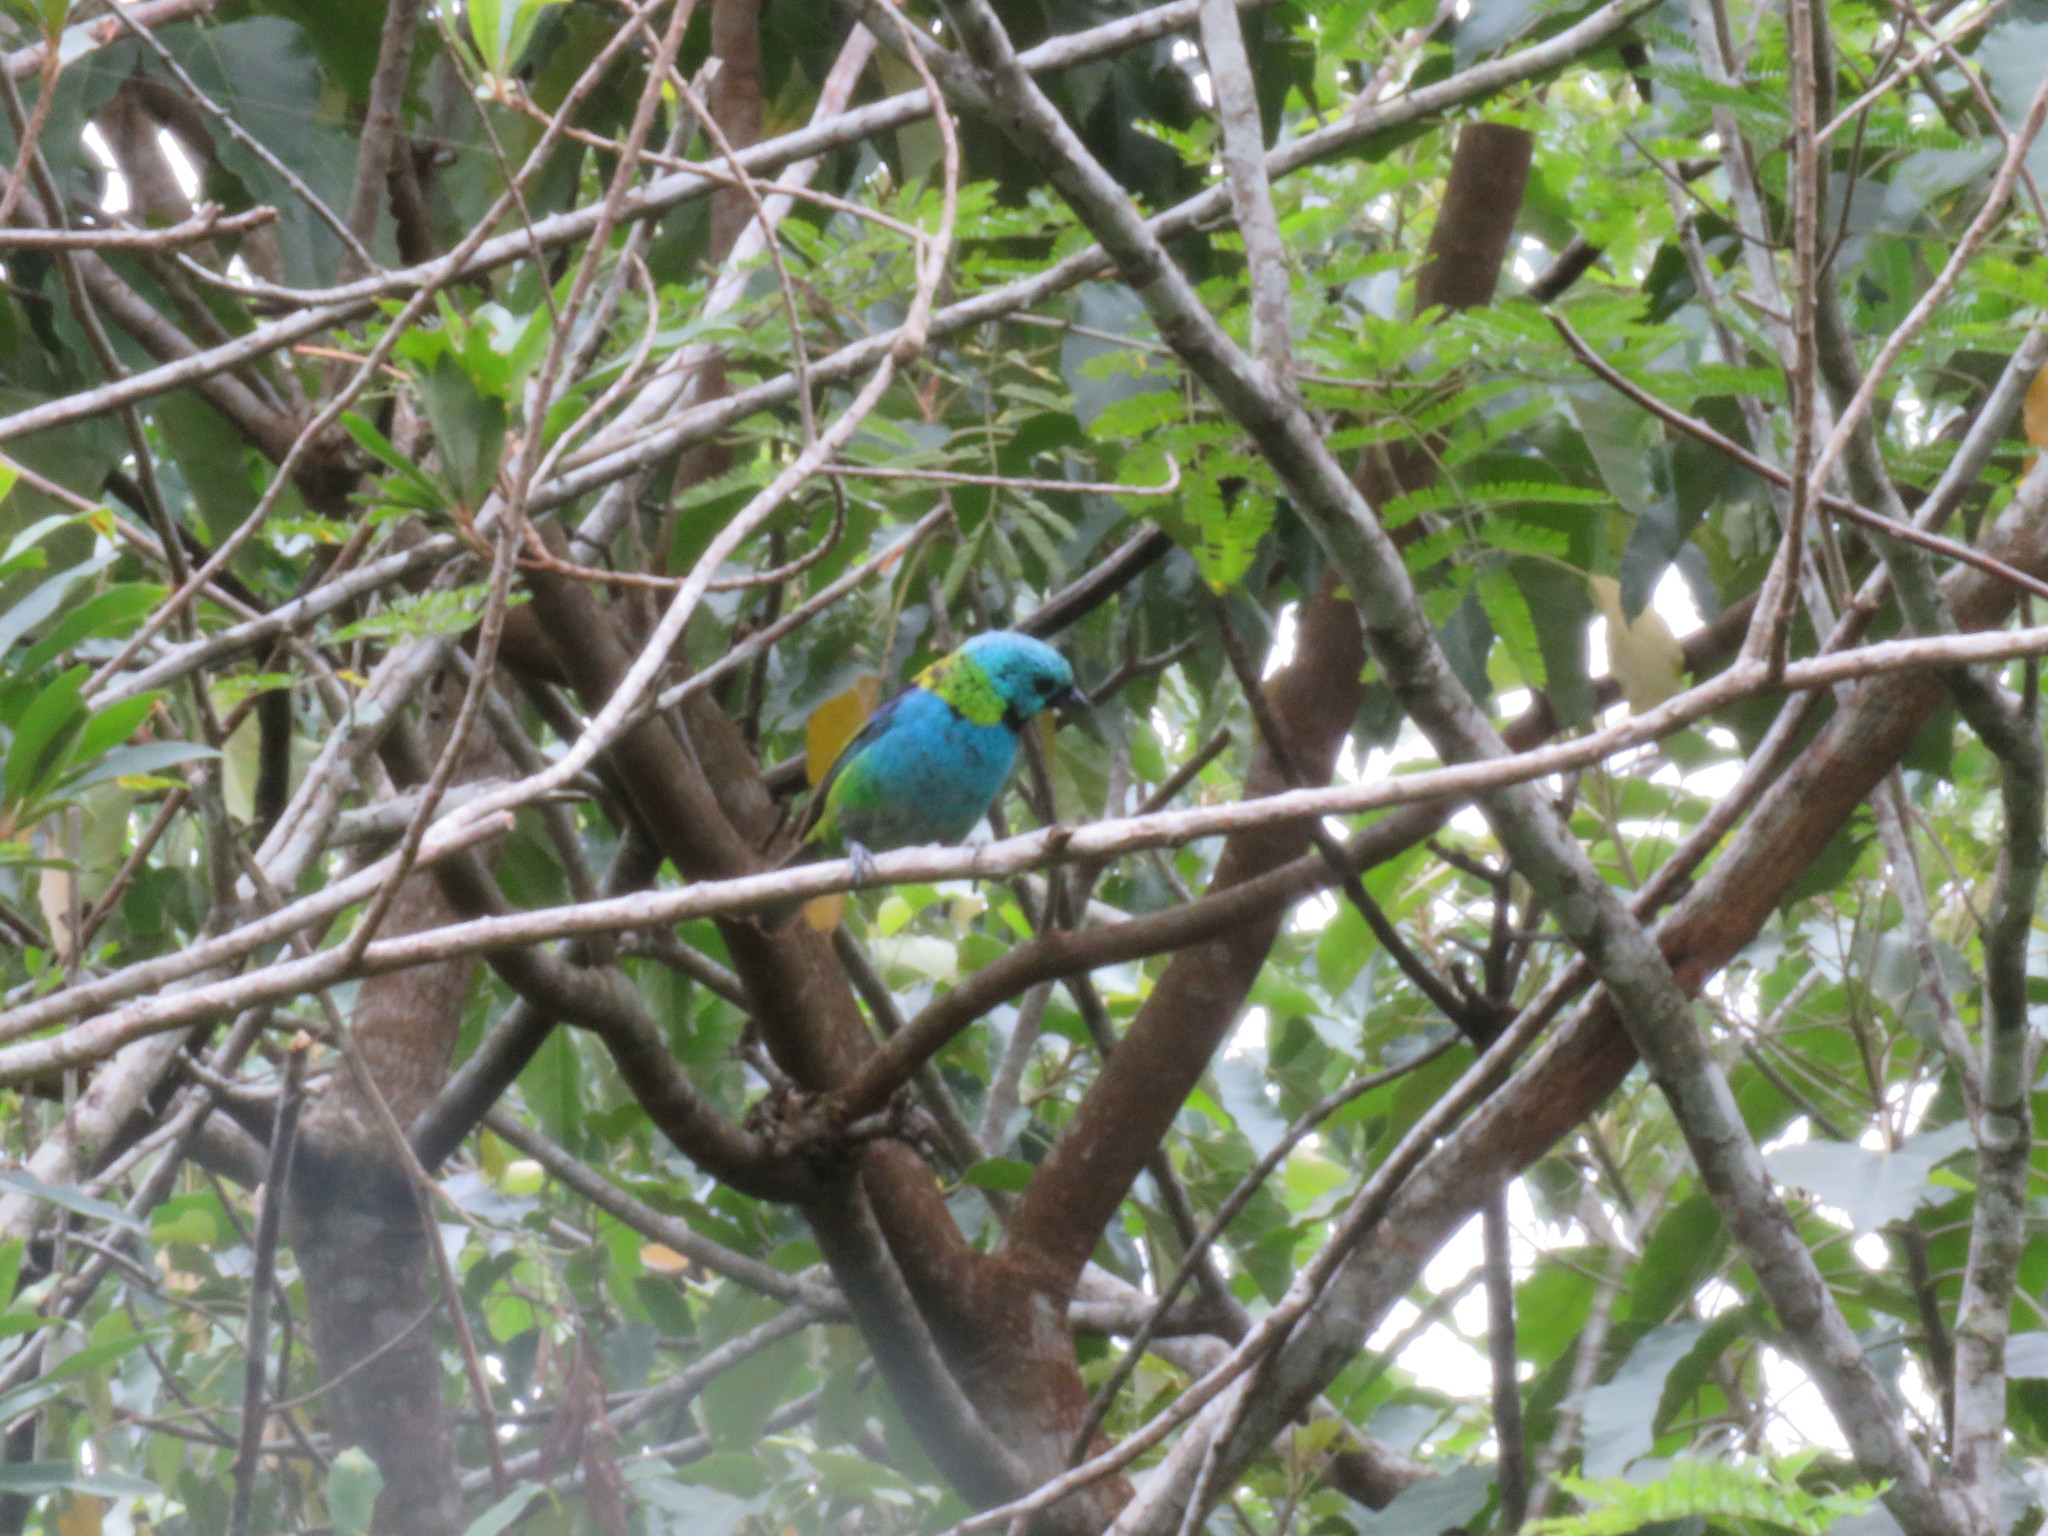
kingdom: Animalia
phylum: Chordata
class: Aves
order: Passeriformes
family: Thraupidae
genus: Tangara
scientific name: Tangara seledon
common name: Green-headed tanager
